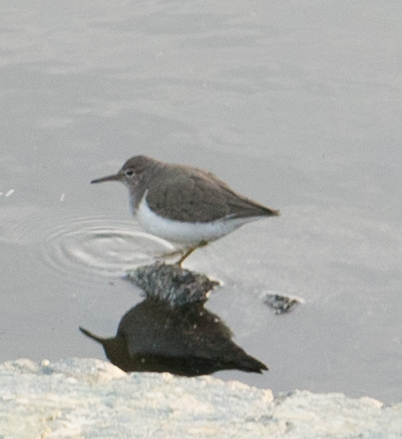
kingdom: Animalia
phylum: Chordata
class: Aves
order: Charadriiformes
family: Scolopacidae
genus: Actitis
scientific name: Actitis macularius
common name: Spotted sandpiper
